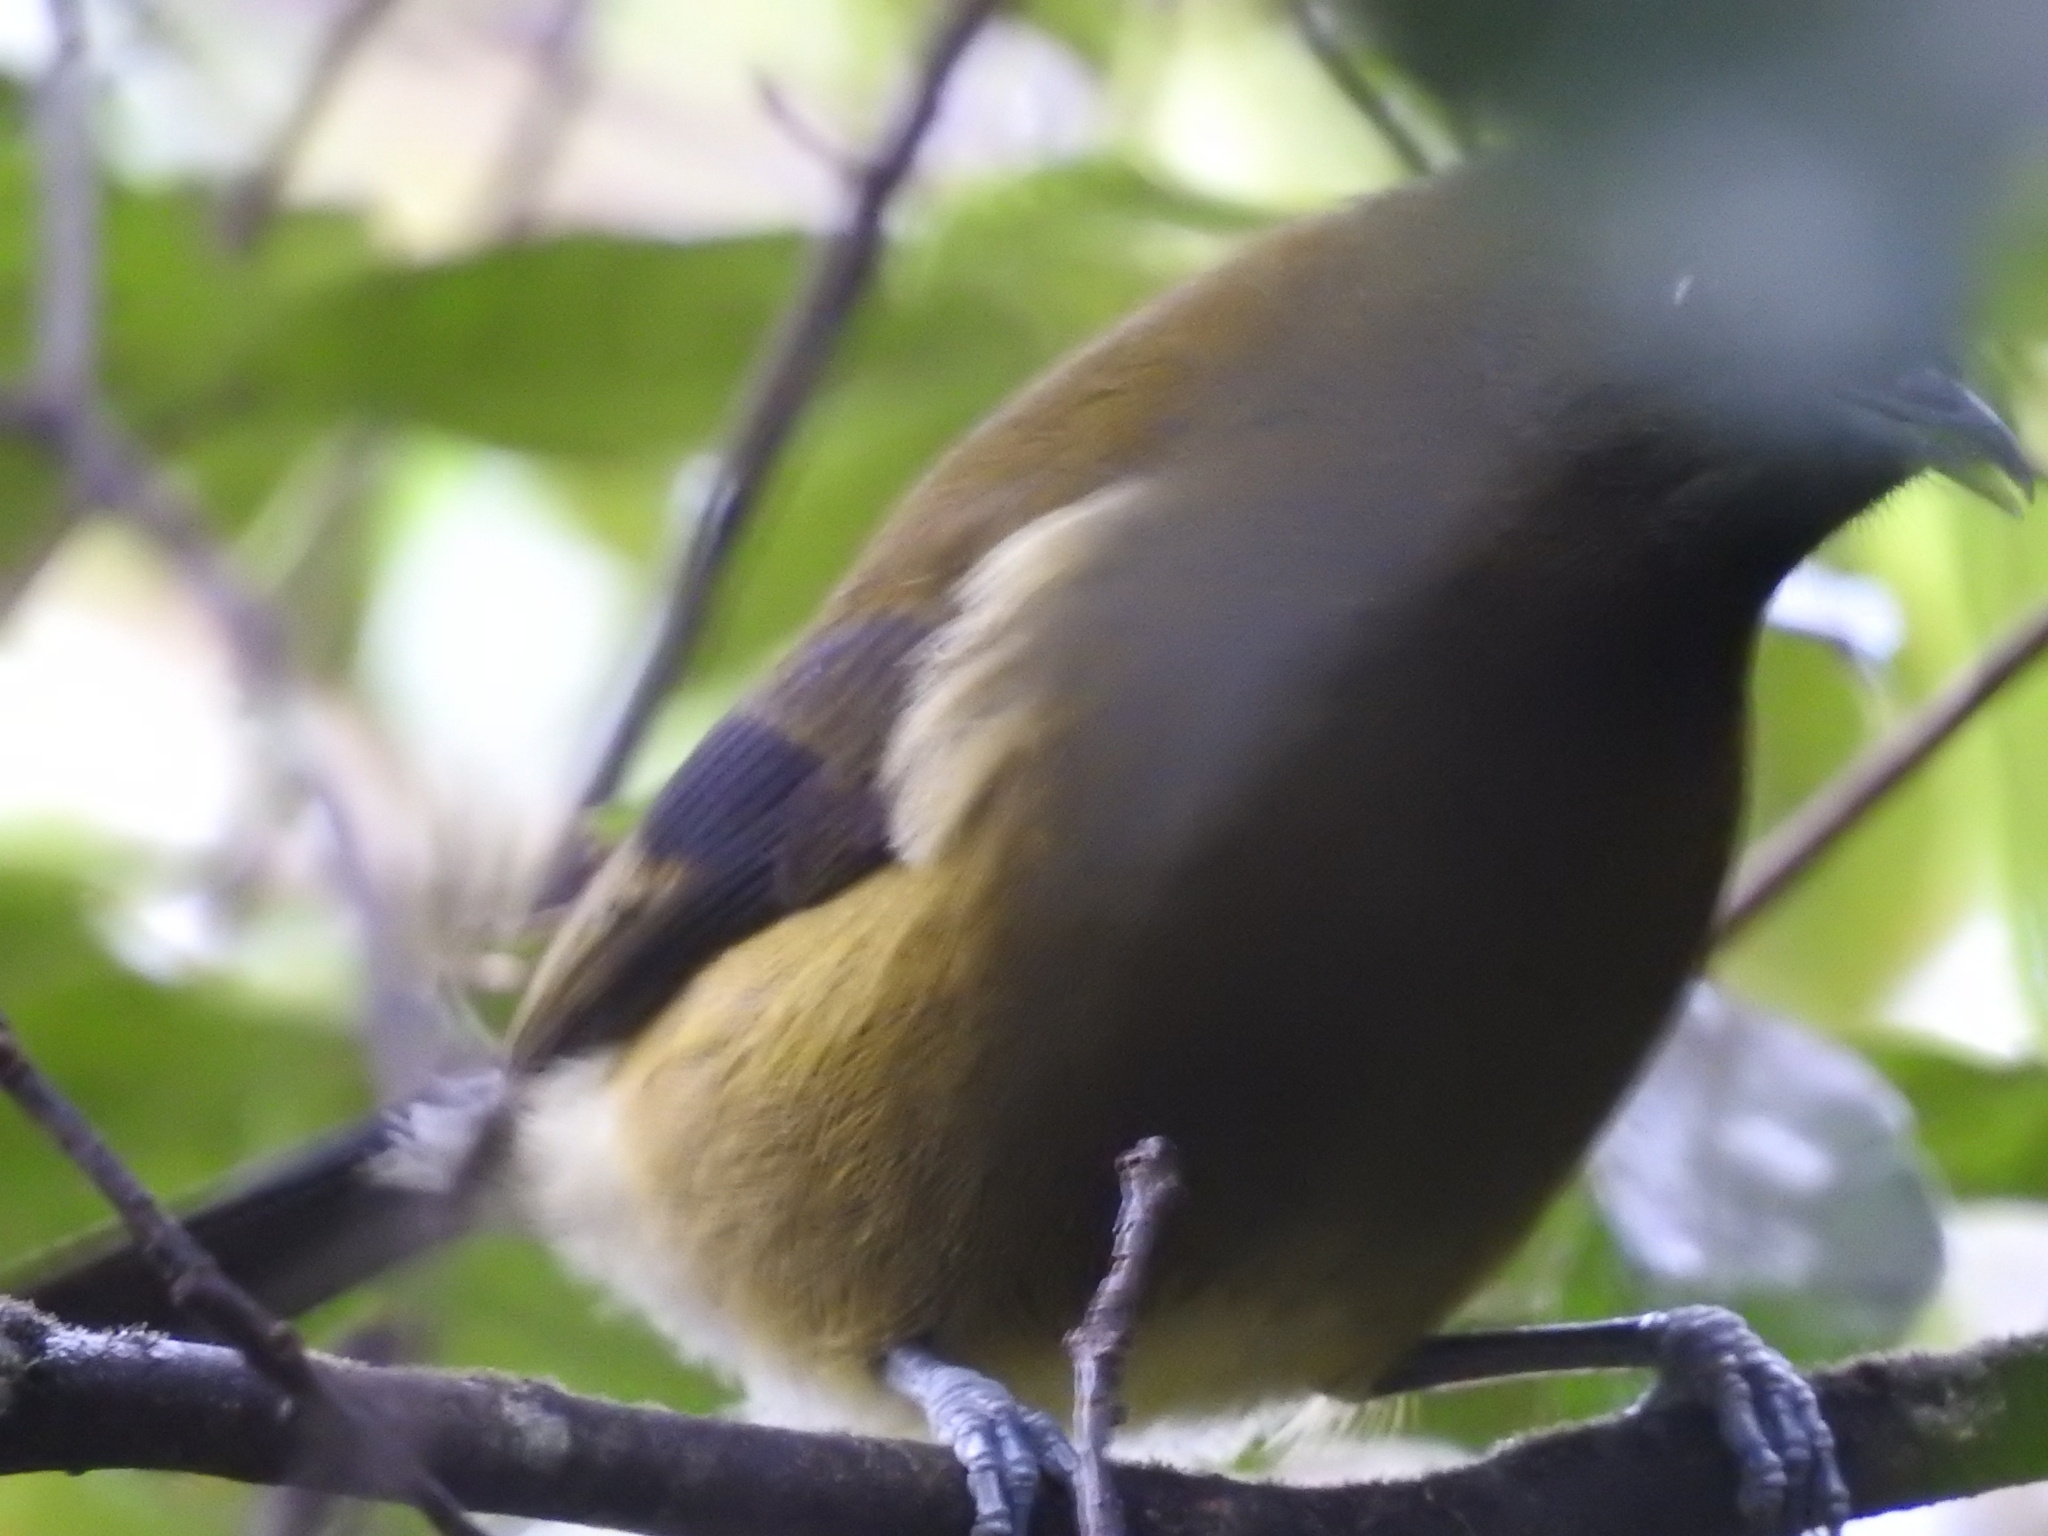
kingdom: Animalia
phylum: Chordata
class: Aves
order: Passeriformes
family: Meliphagidae
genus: Anthornis
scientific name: Anthornis melanura
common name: New zealand bellbird
